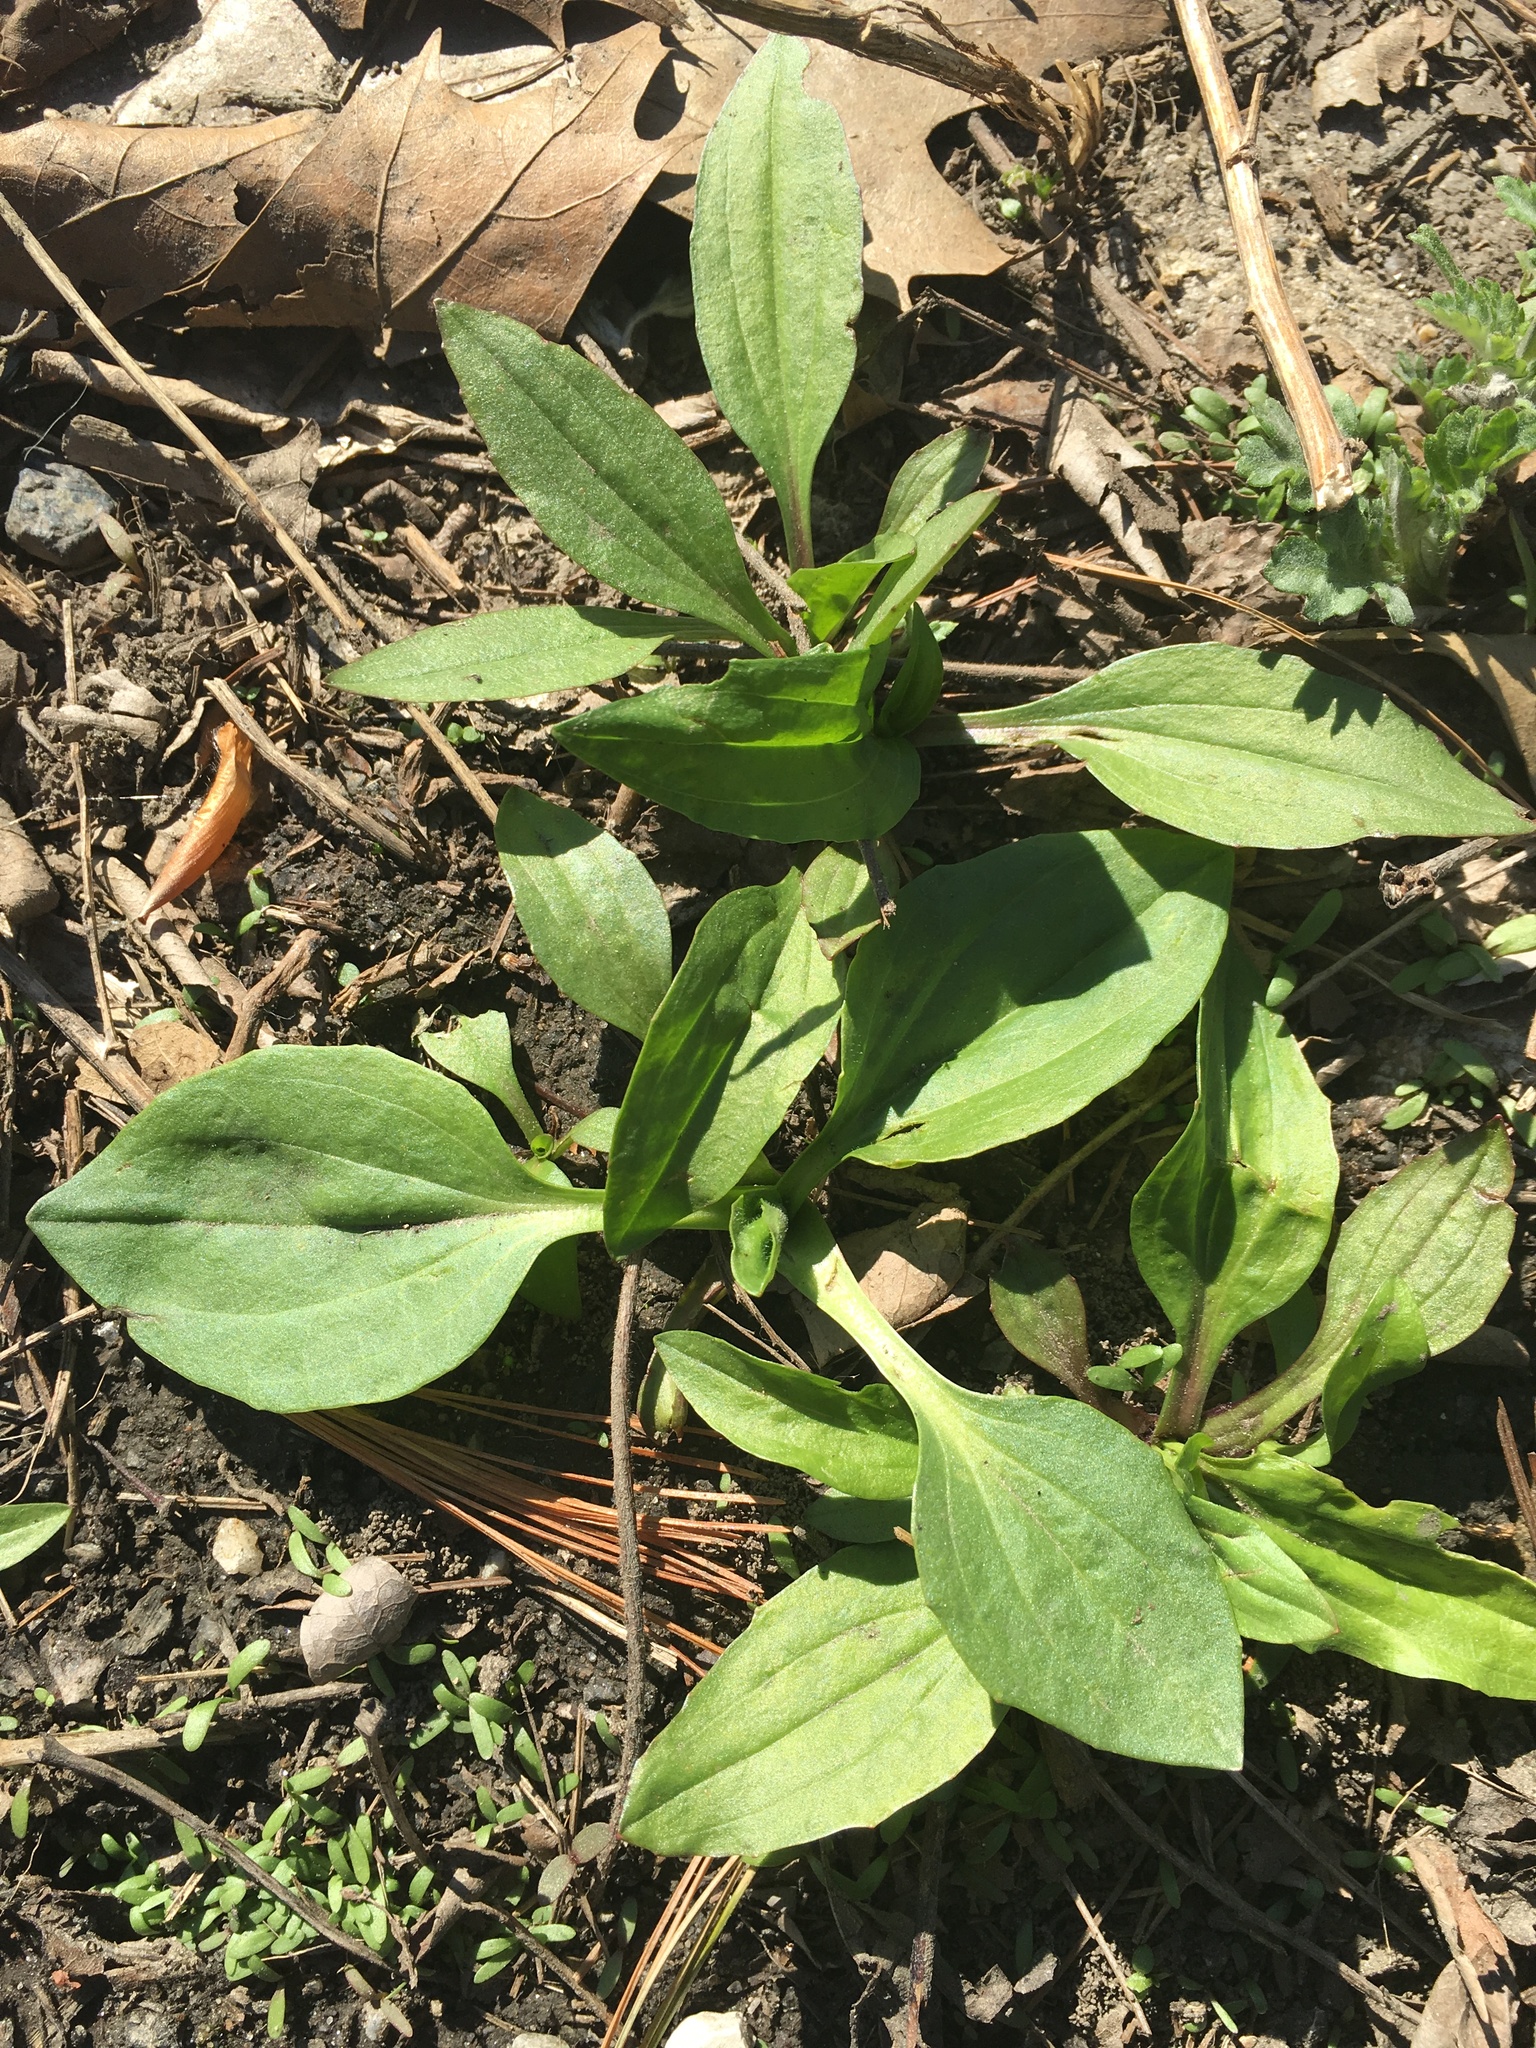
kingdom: Plantae
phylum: Tracheophyta
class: Magnoliopsida
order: Lamiales
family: Plantaginaceae
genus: Plantago
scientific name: Plantago major
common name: Common plantain
